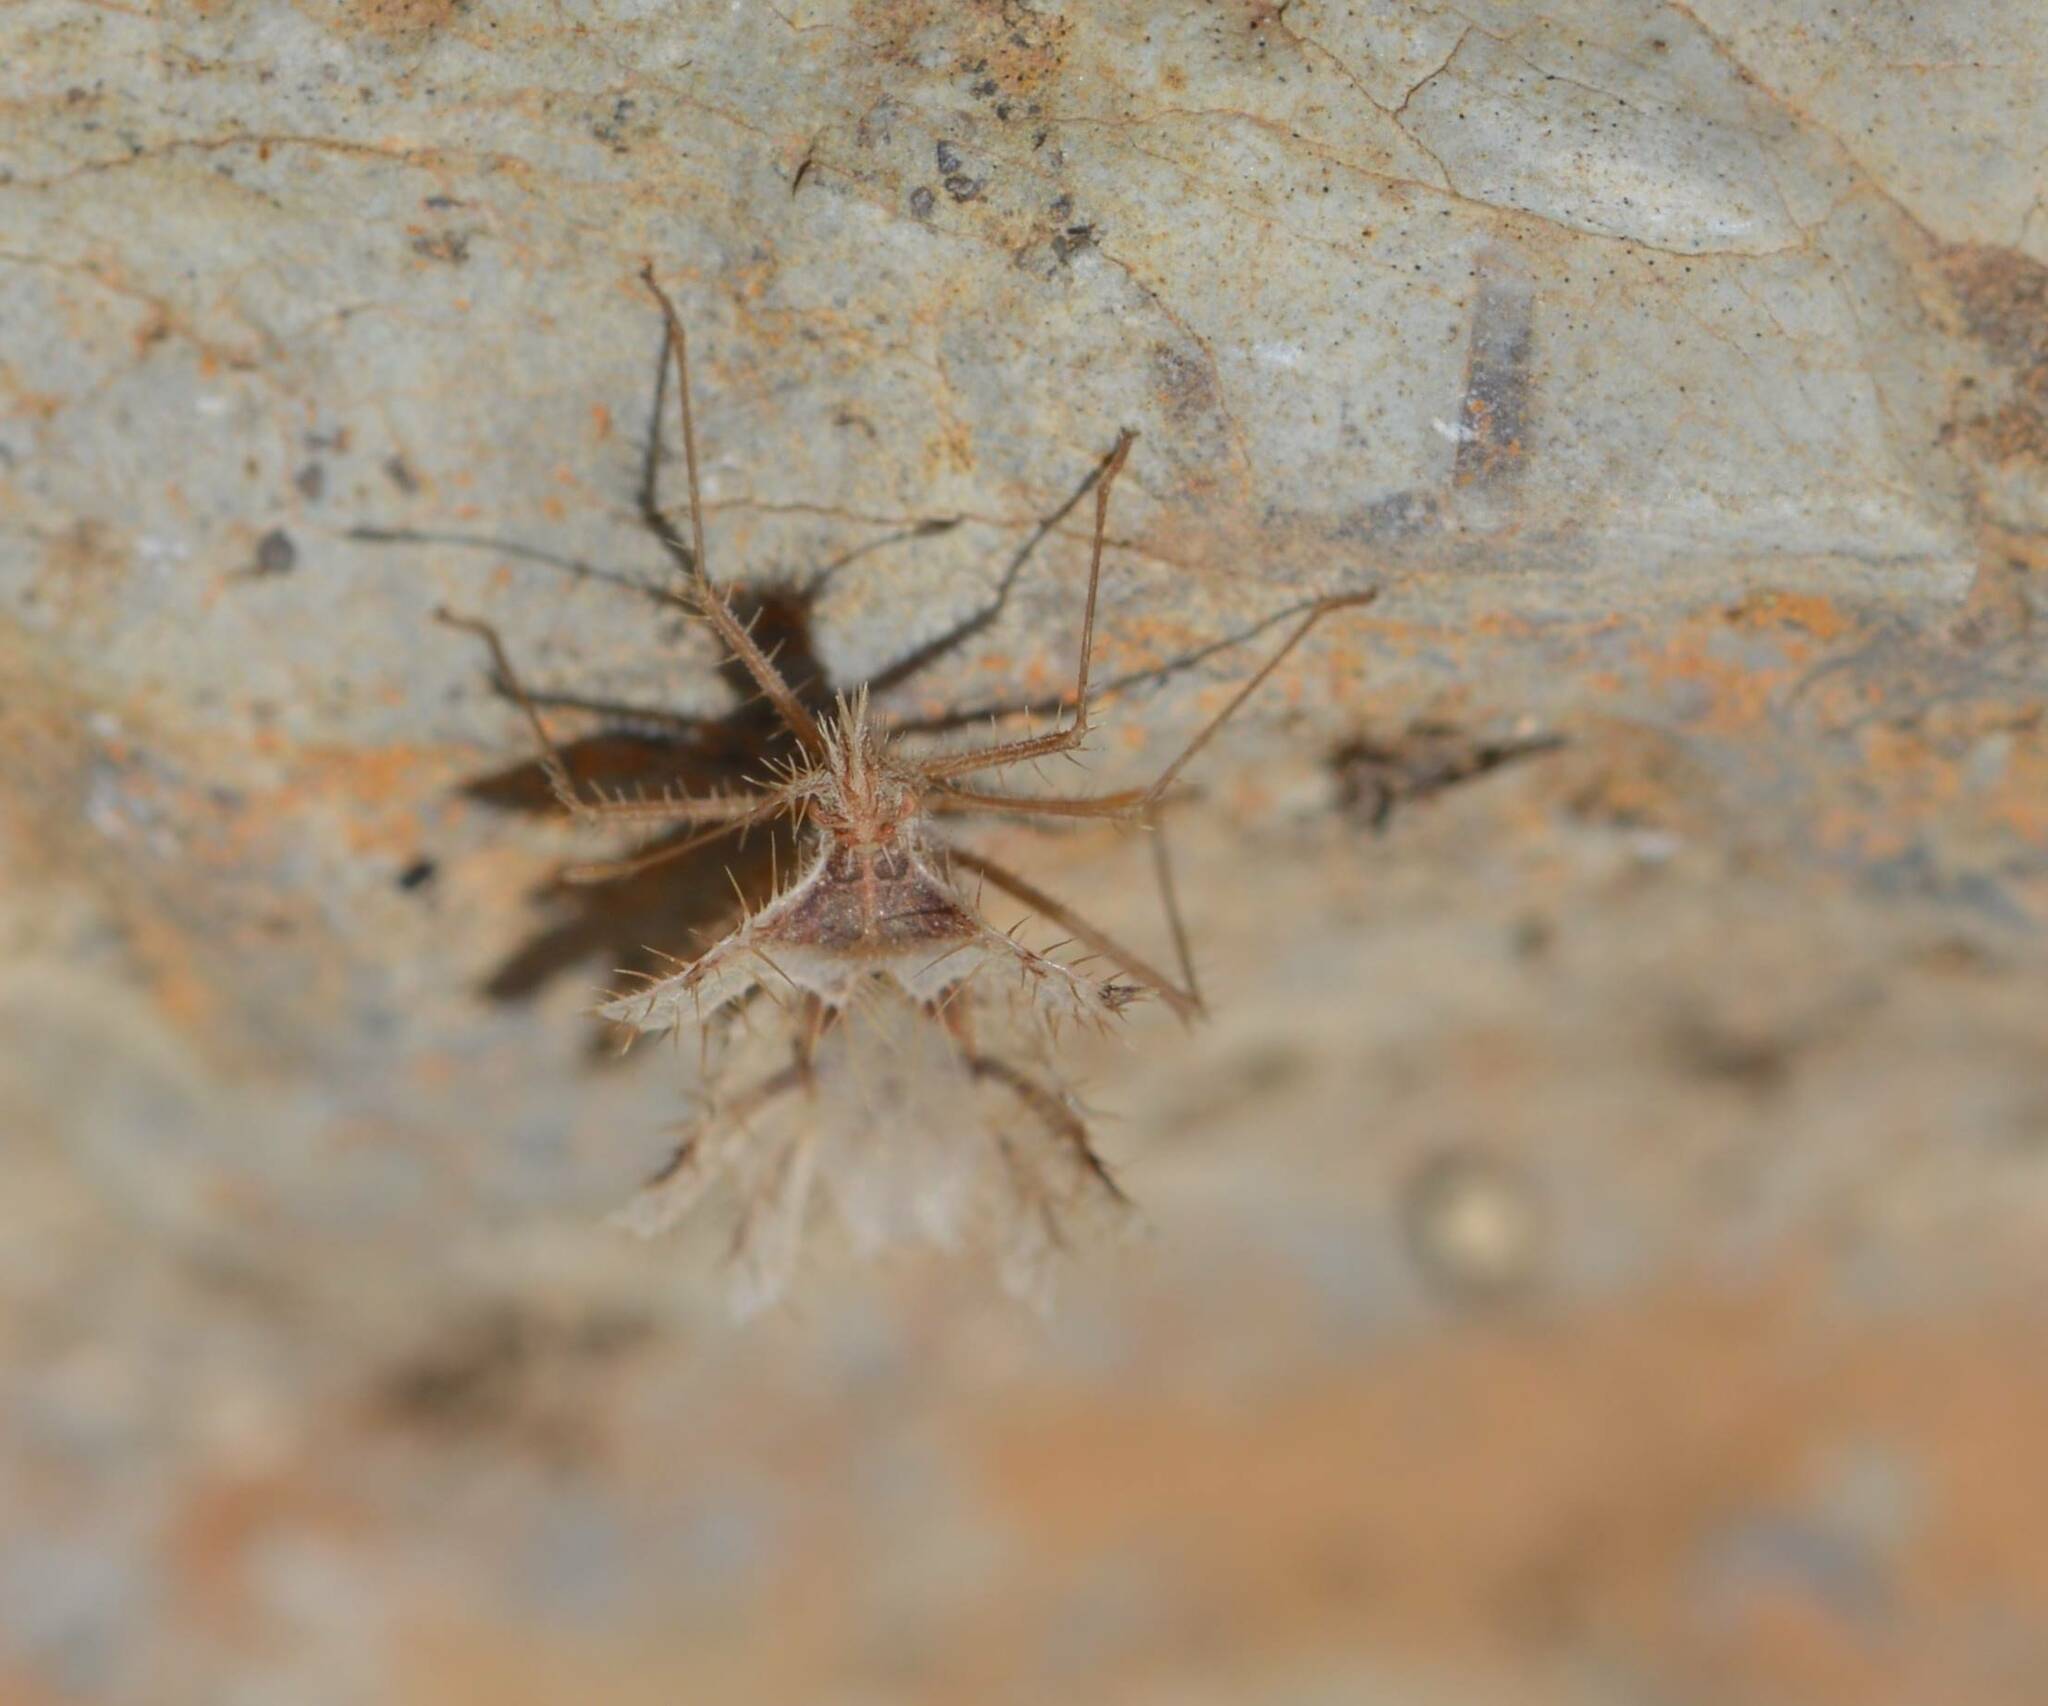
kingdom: Animalia
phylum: Arthropoda
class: Insecta
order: Hemiptera
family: Coreidae
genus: Phyllomorpha
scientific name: Phyllomorpha laciniata
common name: Golden egg bug
